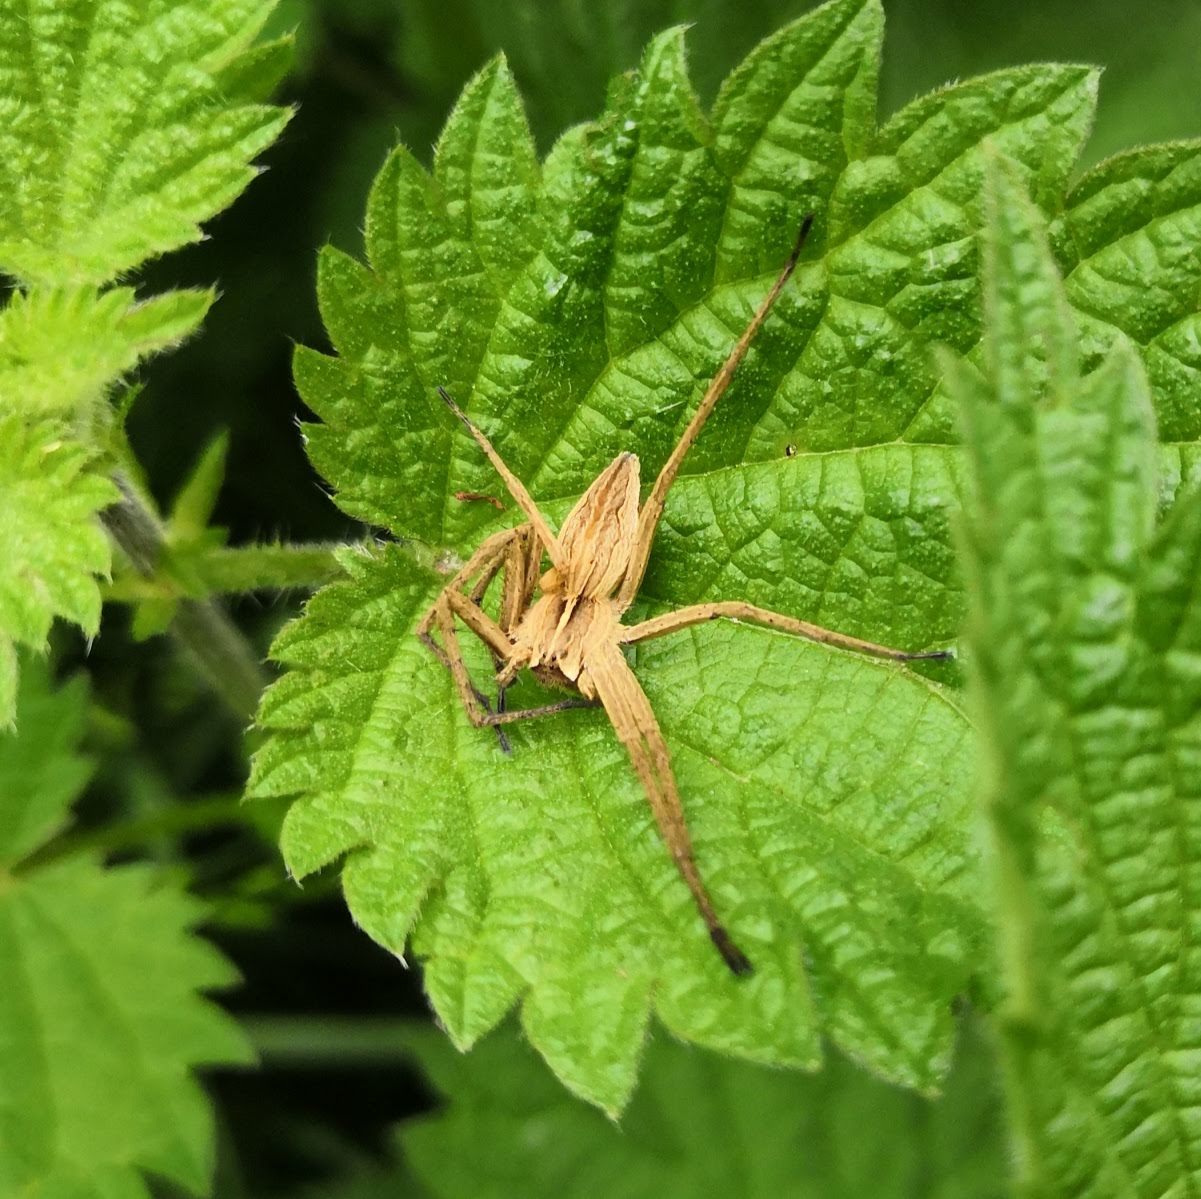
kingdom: Animalia
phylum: Arthropoda
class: Arachnida
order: Araneae
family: Pisauridae
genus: Pisaura
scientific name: Pisaura mirabilis
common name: Tent spider
